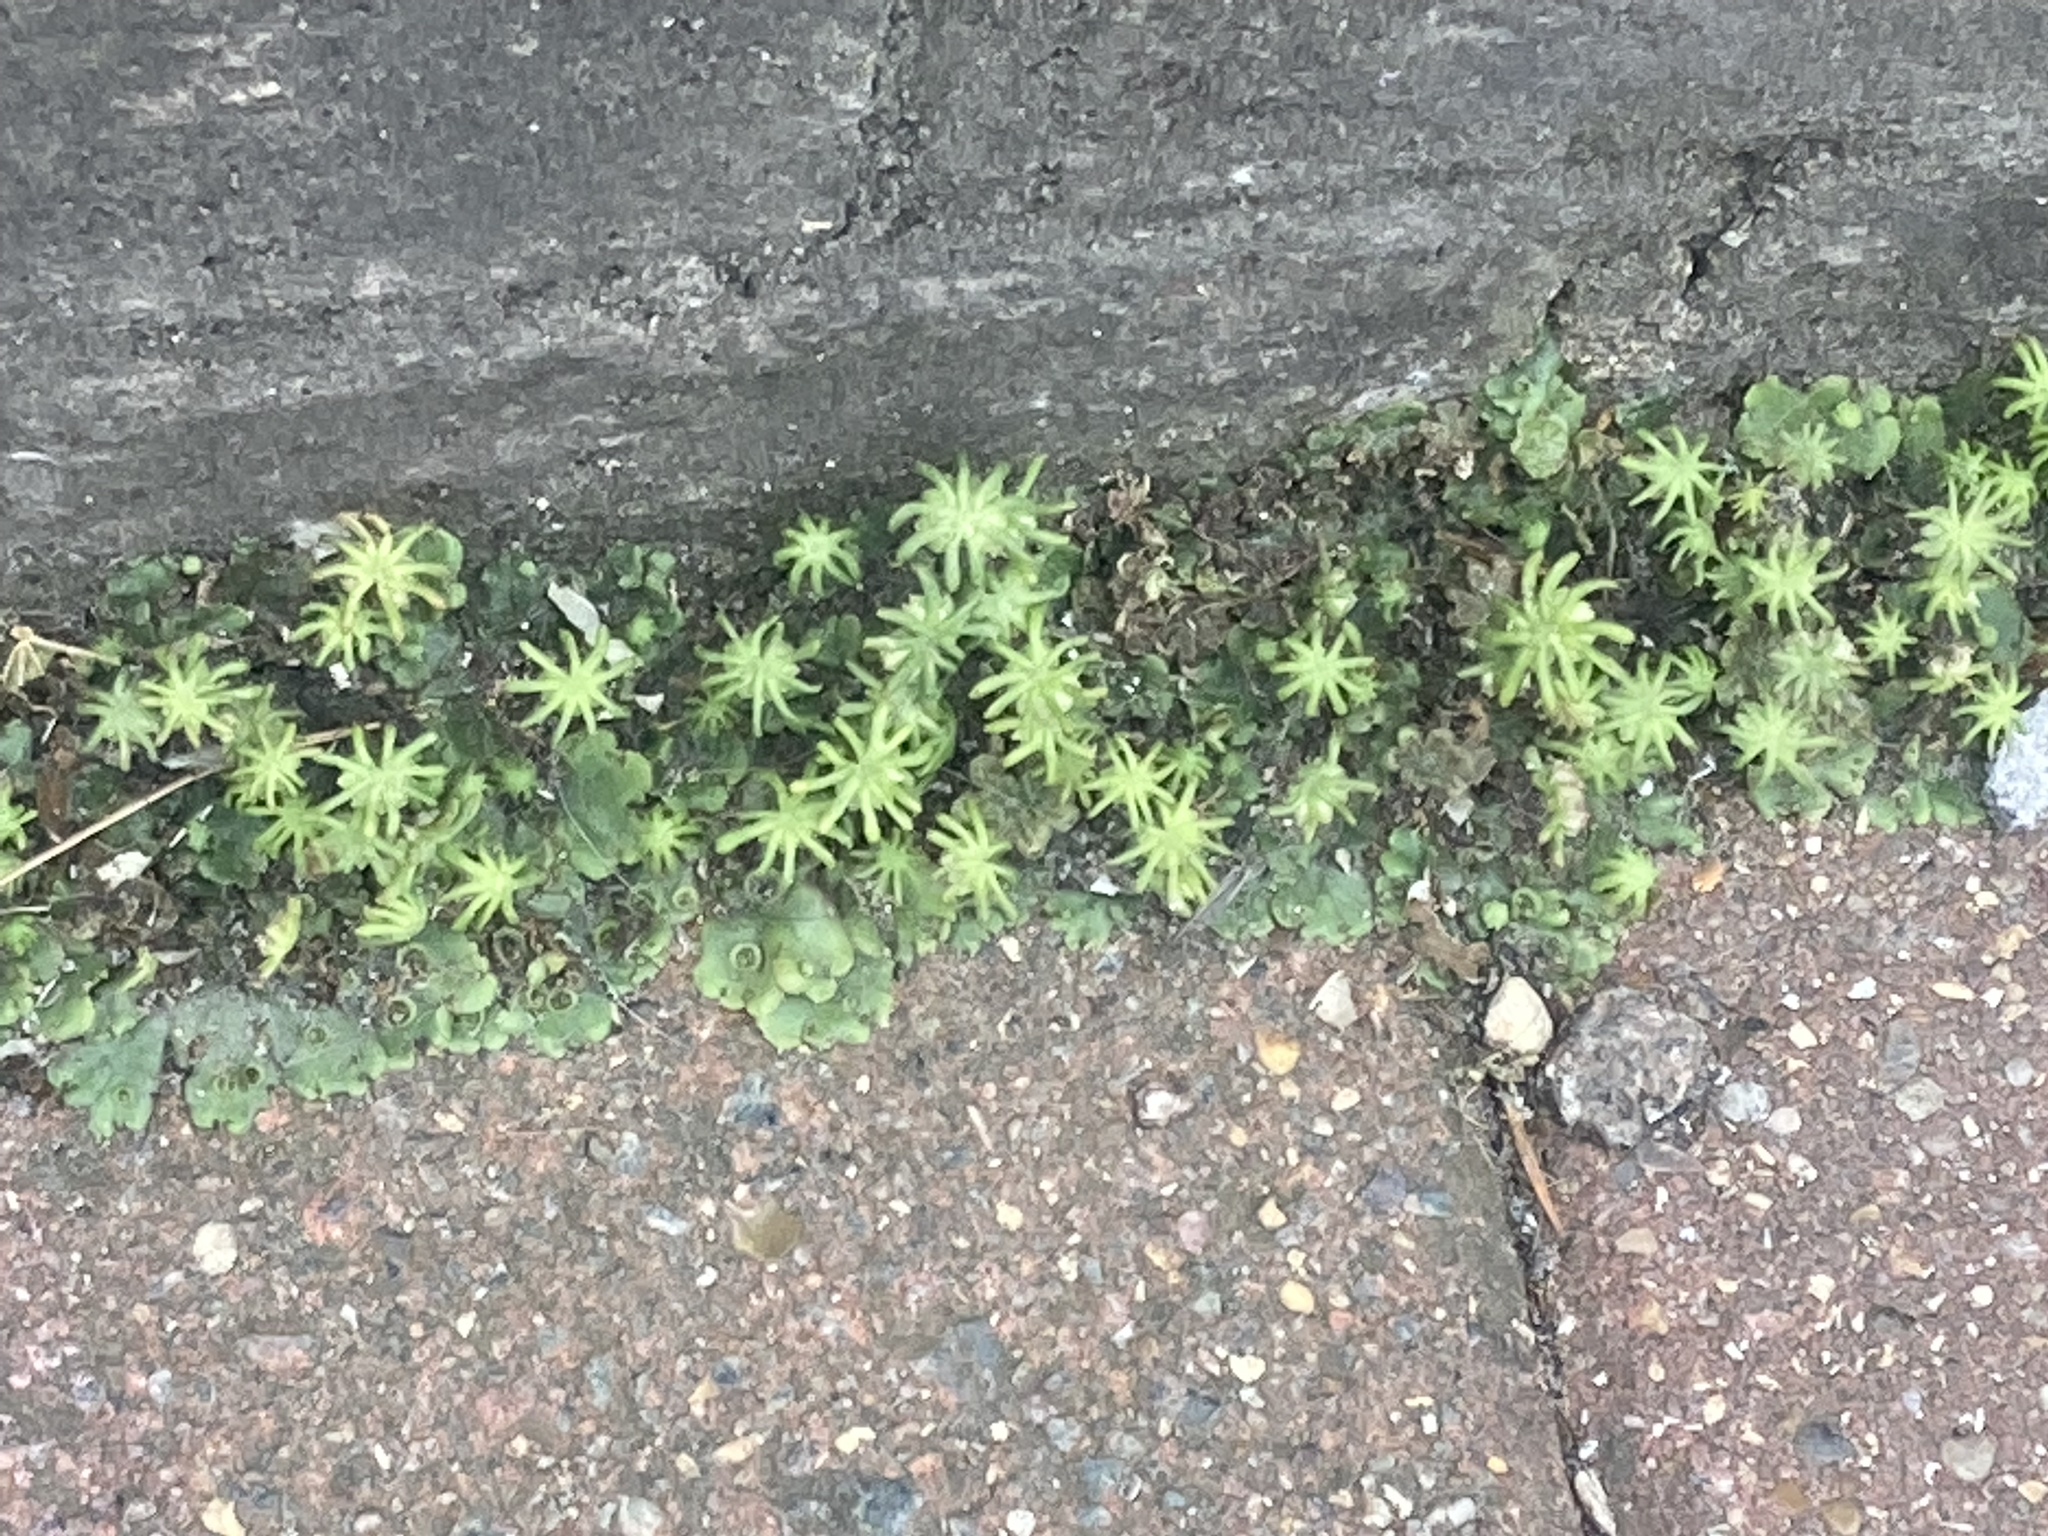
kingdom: Plantae
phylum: Marchantiophyta
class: Marchantiopsida
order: Marchantiales
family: Marchantiaceae
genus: Marchantia
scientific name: Marchantia polymorpha
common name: Common liverwort
